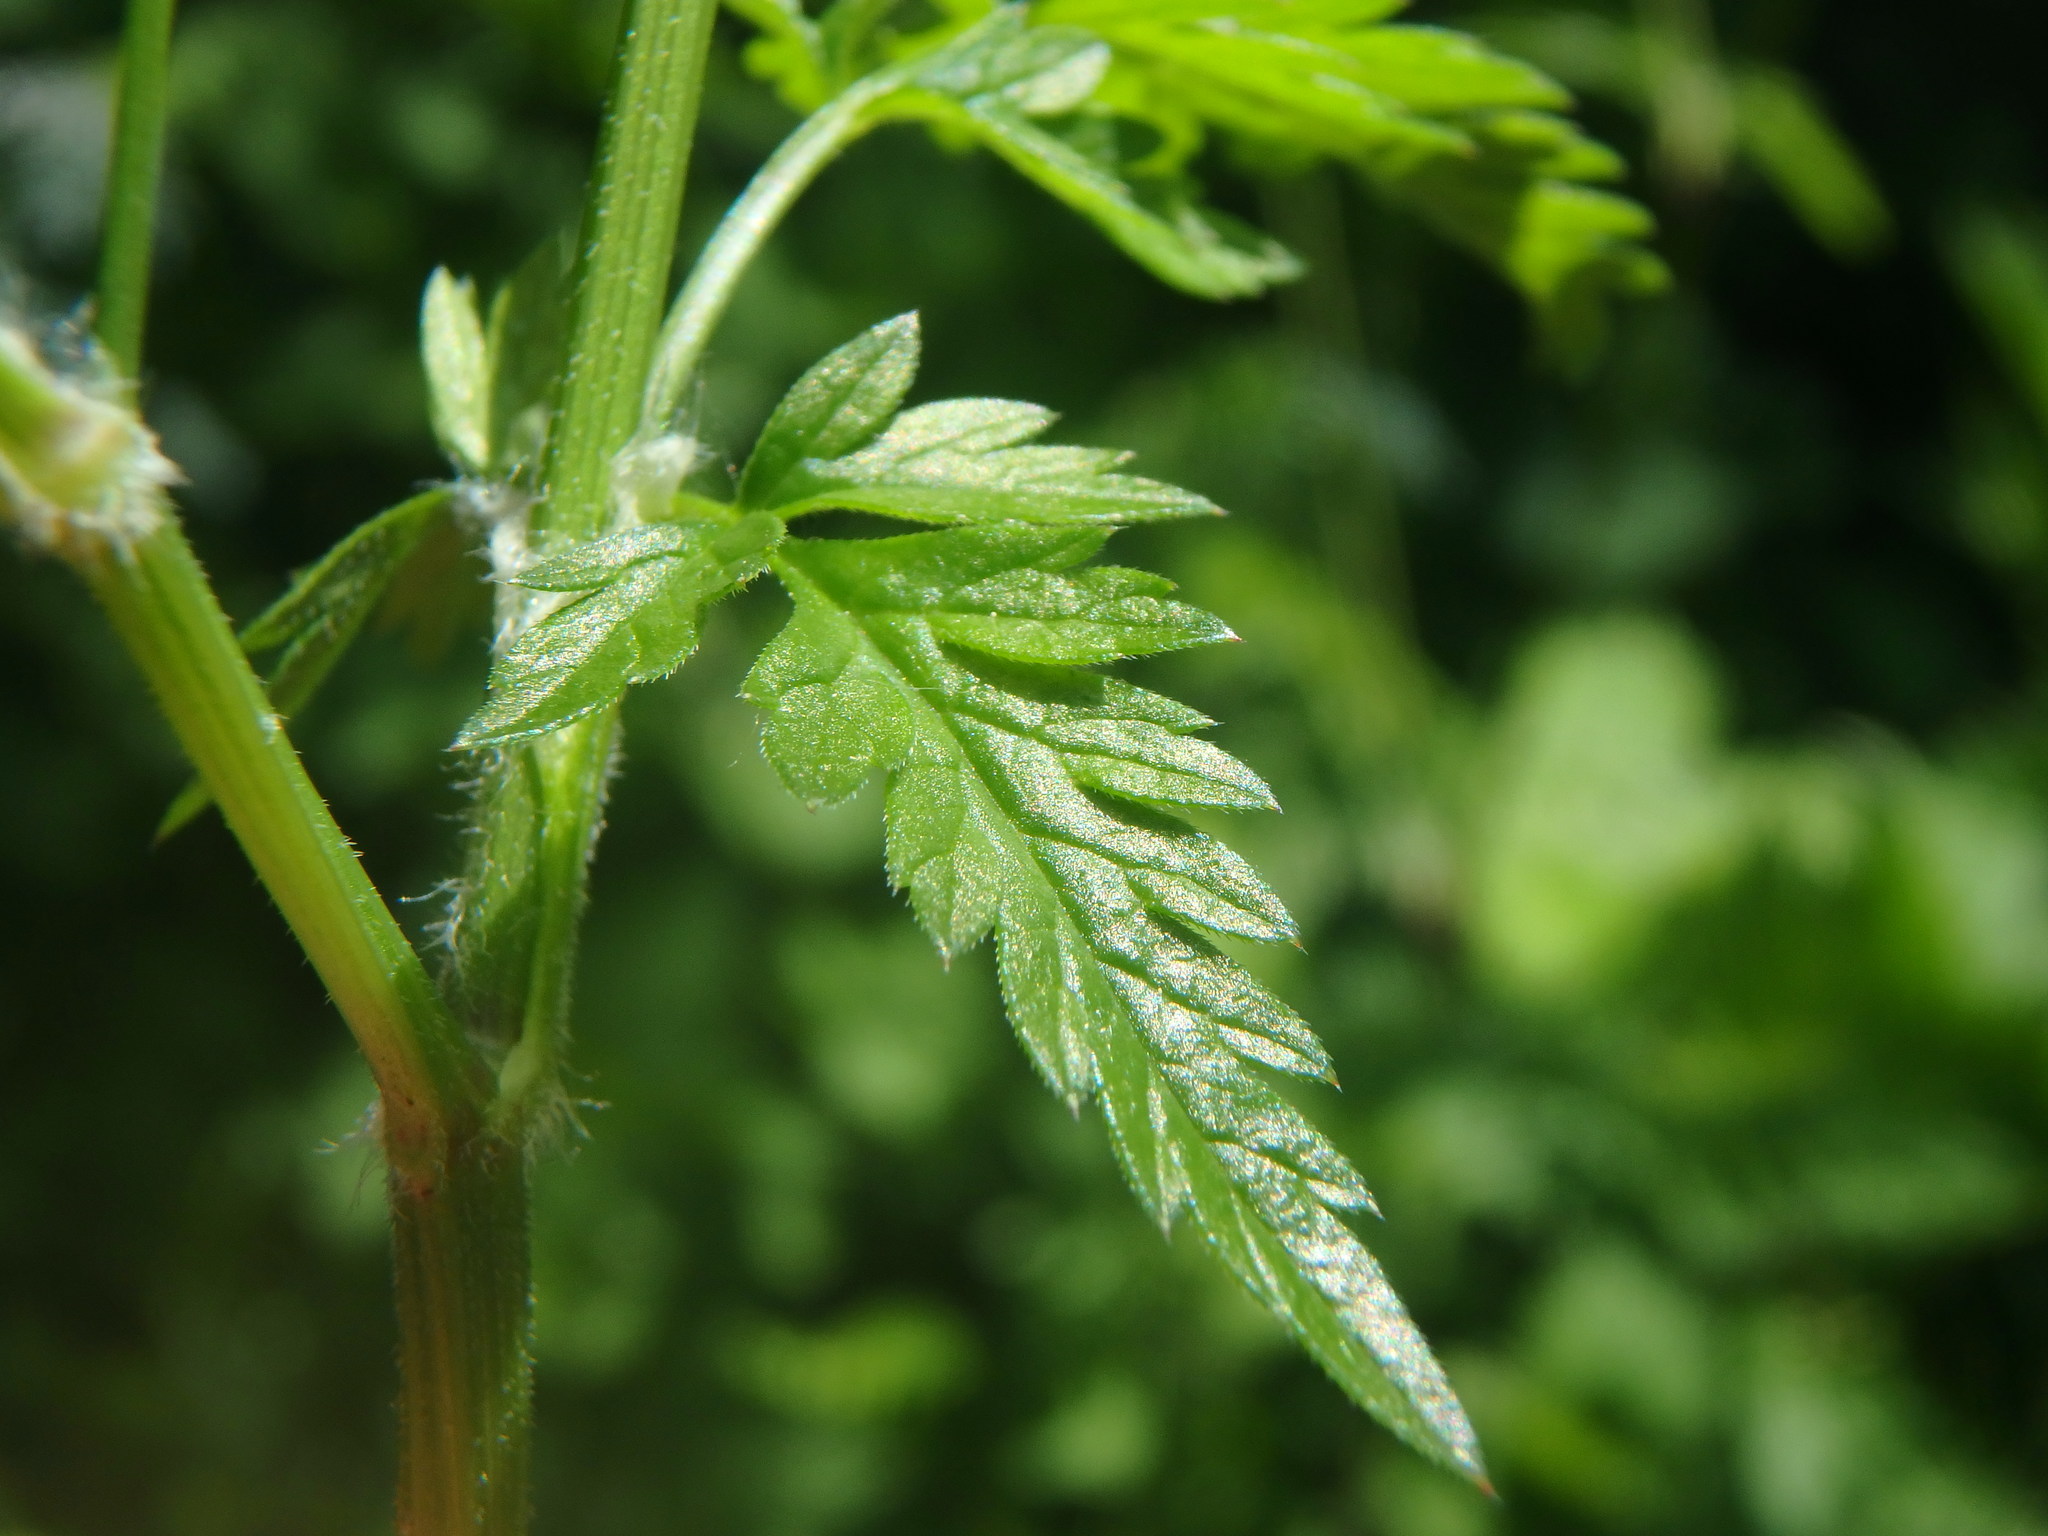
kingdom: Plantae
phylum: Tracheophyta
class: Magnoliopsida
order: Apiales
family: Apiaceae
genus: Anthriscus
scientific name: Anthriscus sylvestris
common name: Cow parsley
